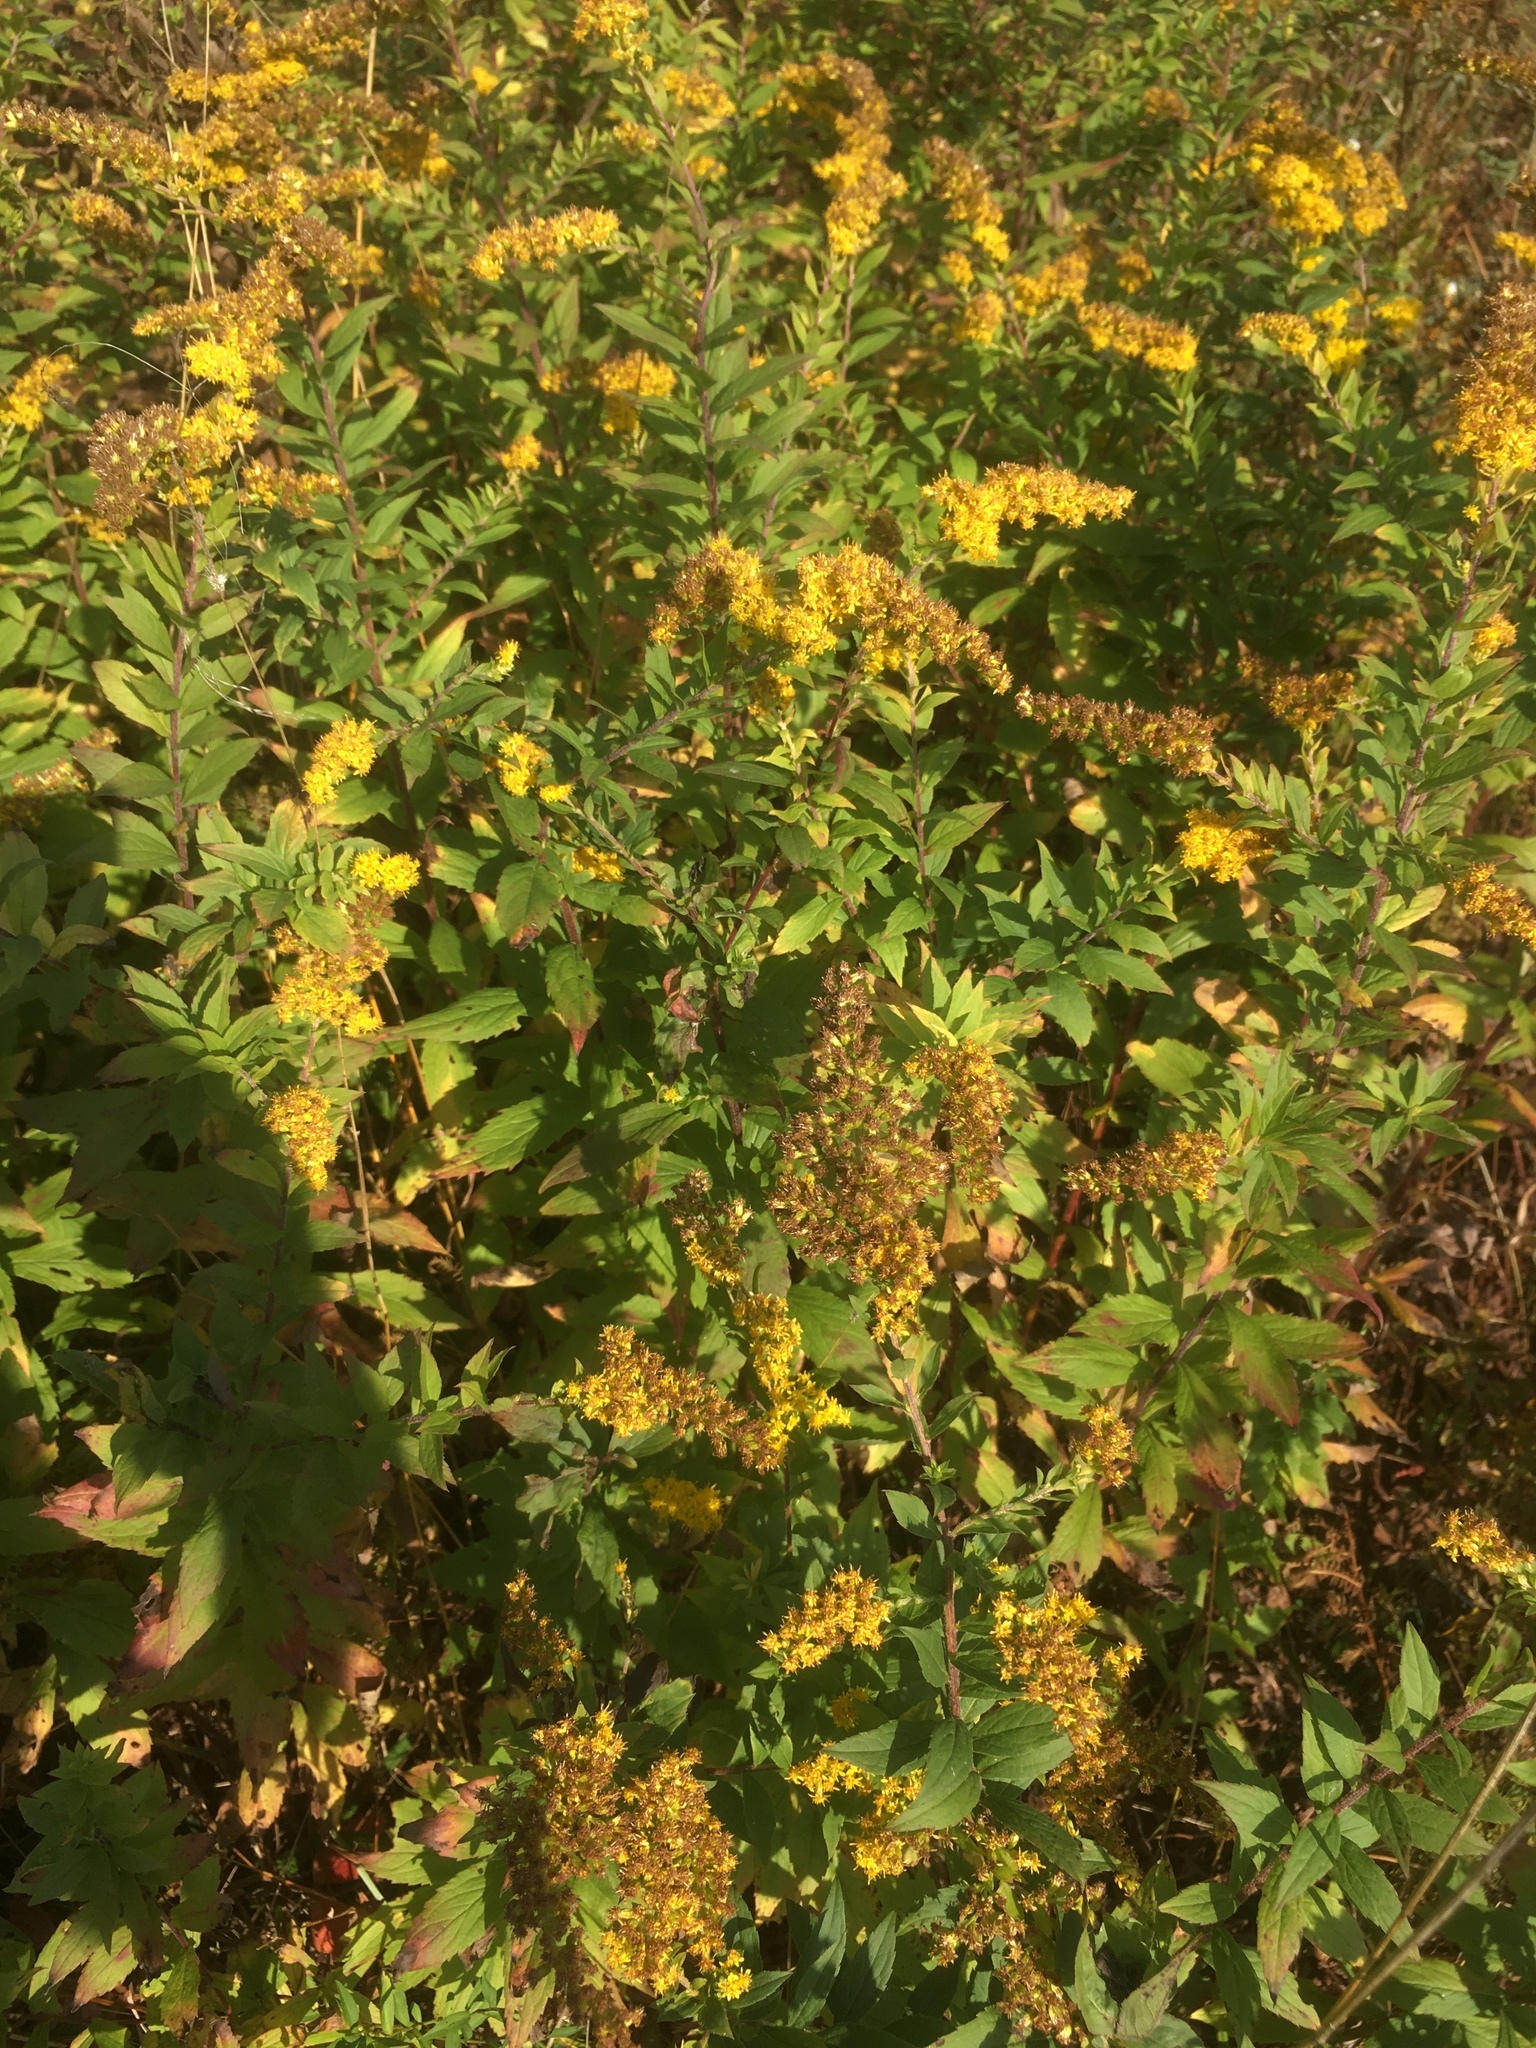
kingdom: Plantae
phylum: Tracheophyta
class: Magnoliopsida
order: Asterales
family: Asteraceae
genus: Solidago
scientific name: Solidago rugosa
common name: Rough-stemmed goldenrod
